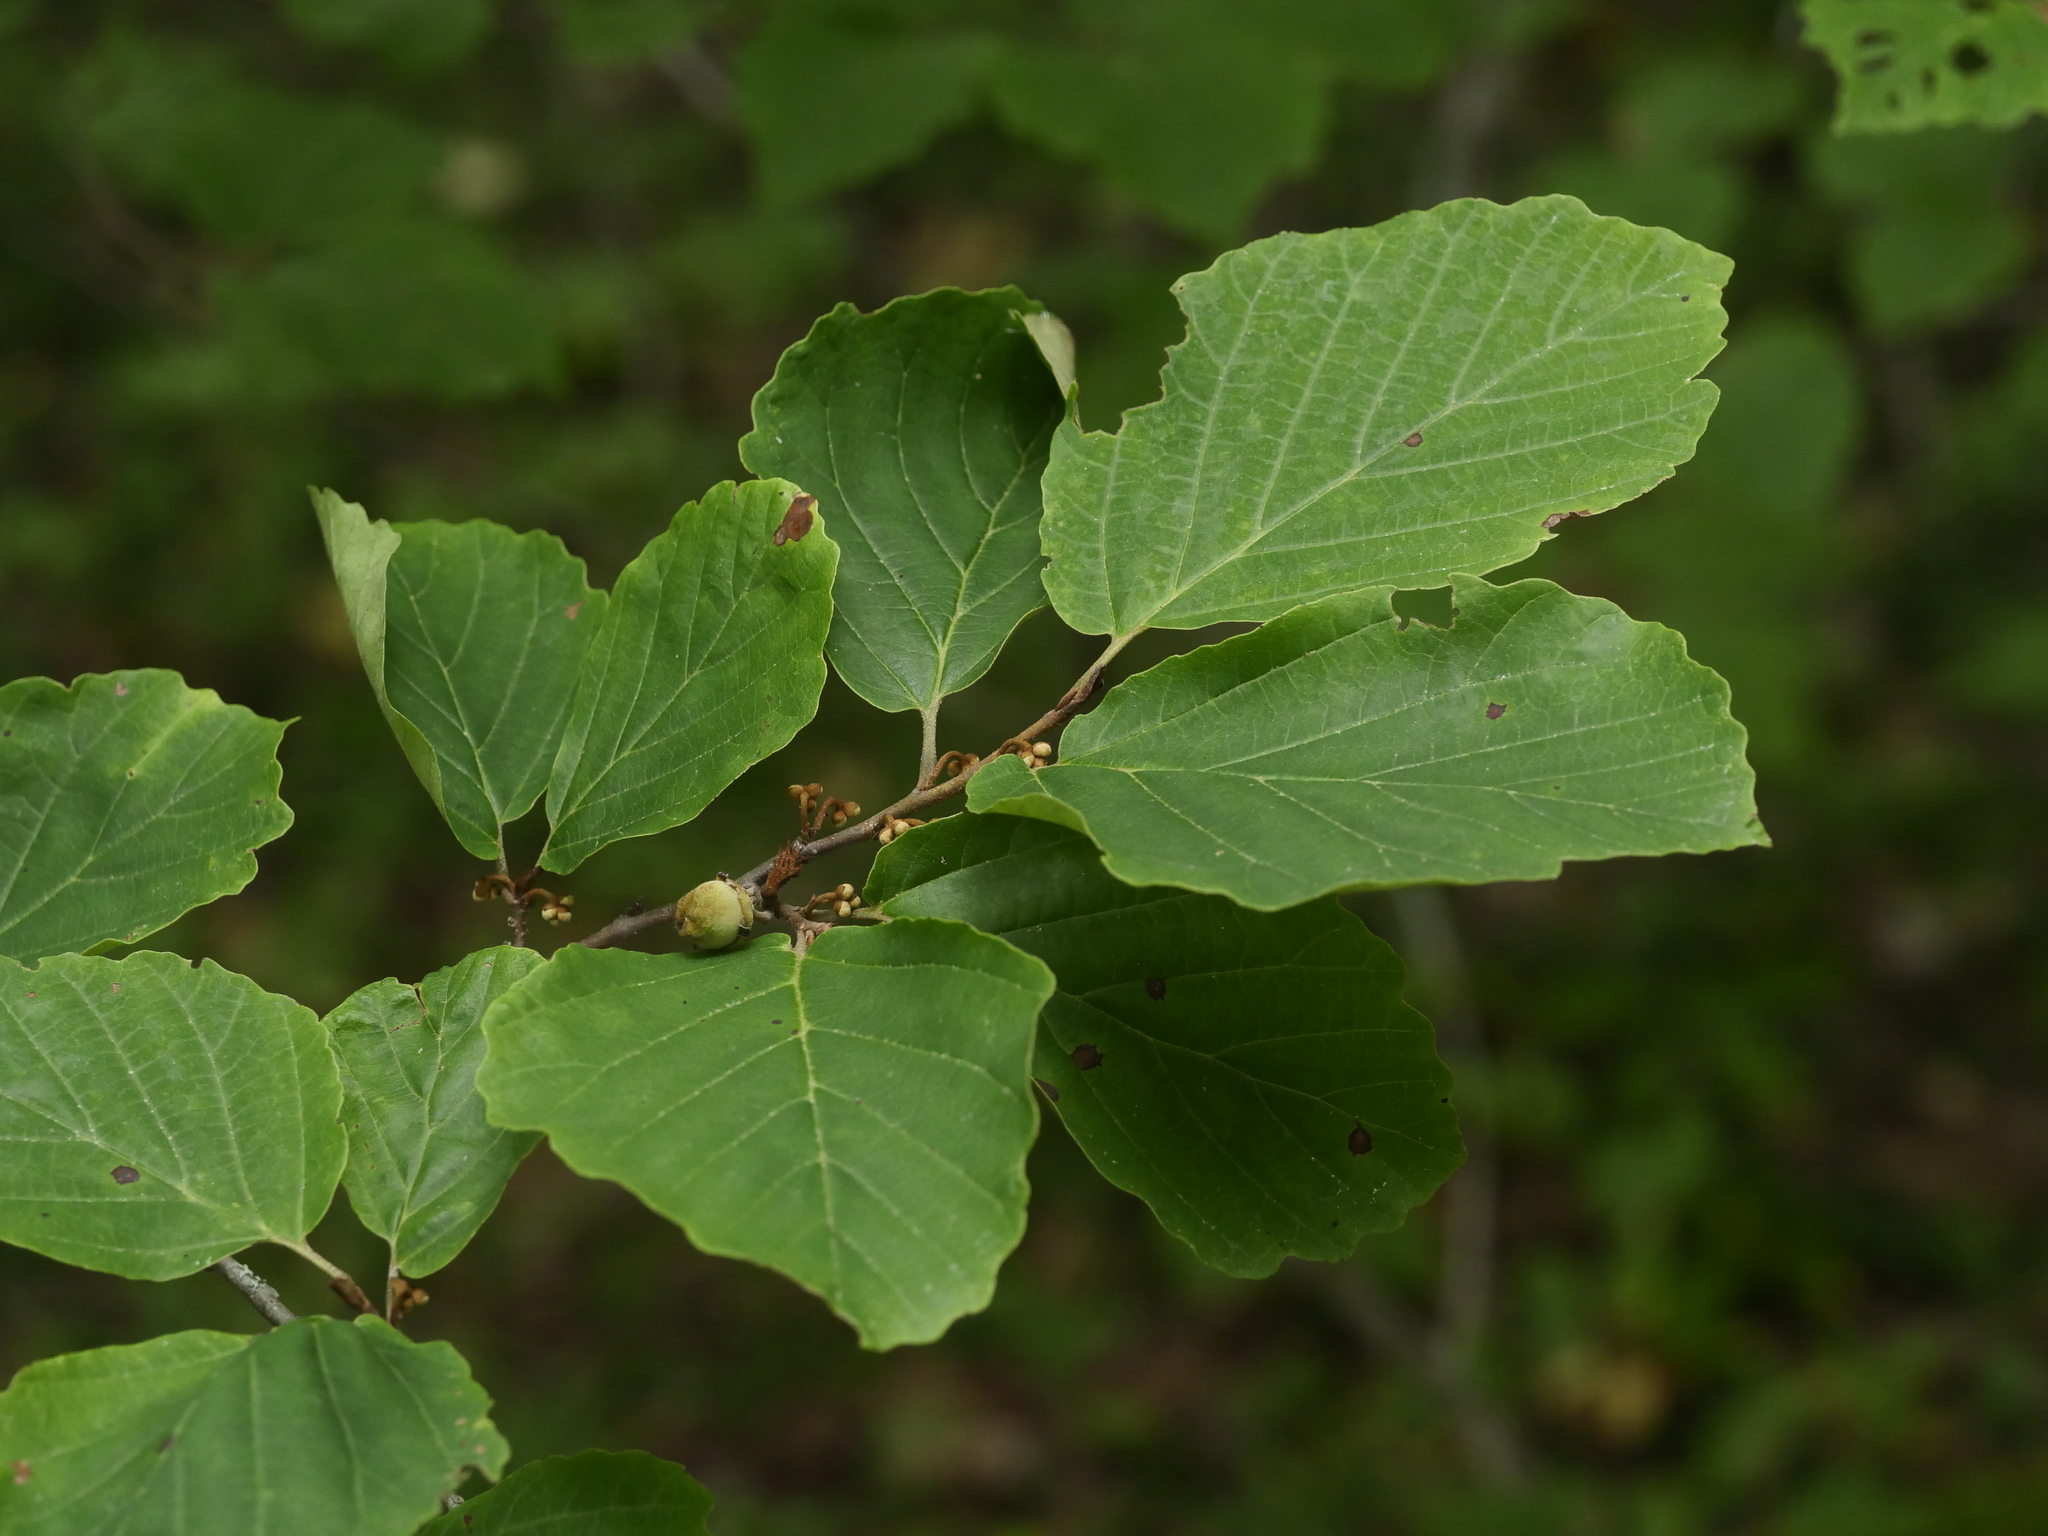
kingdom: Plantae
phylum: Tracheophyta
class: Magnoliopsida
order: Saxifragales
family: Hamamelidaceae
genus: Hamamelis
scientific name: Hamamelis virginiana
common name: Witch-hazel
